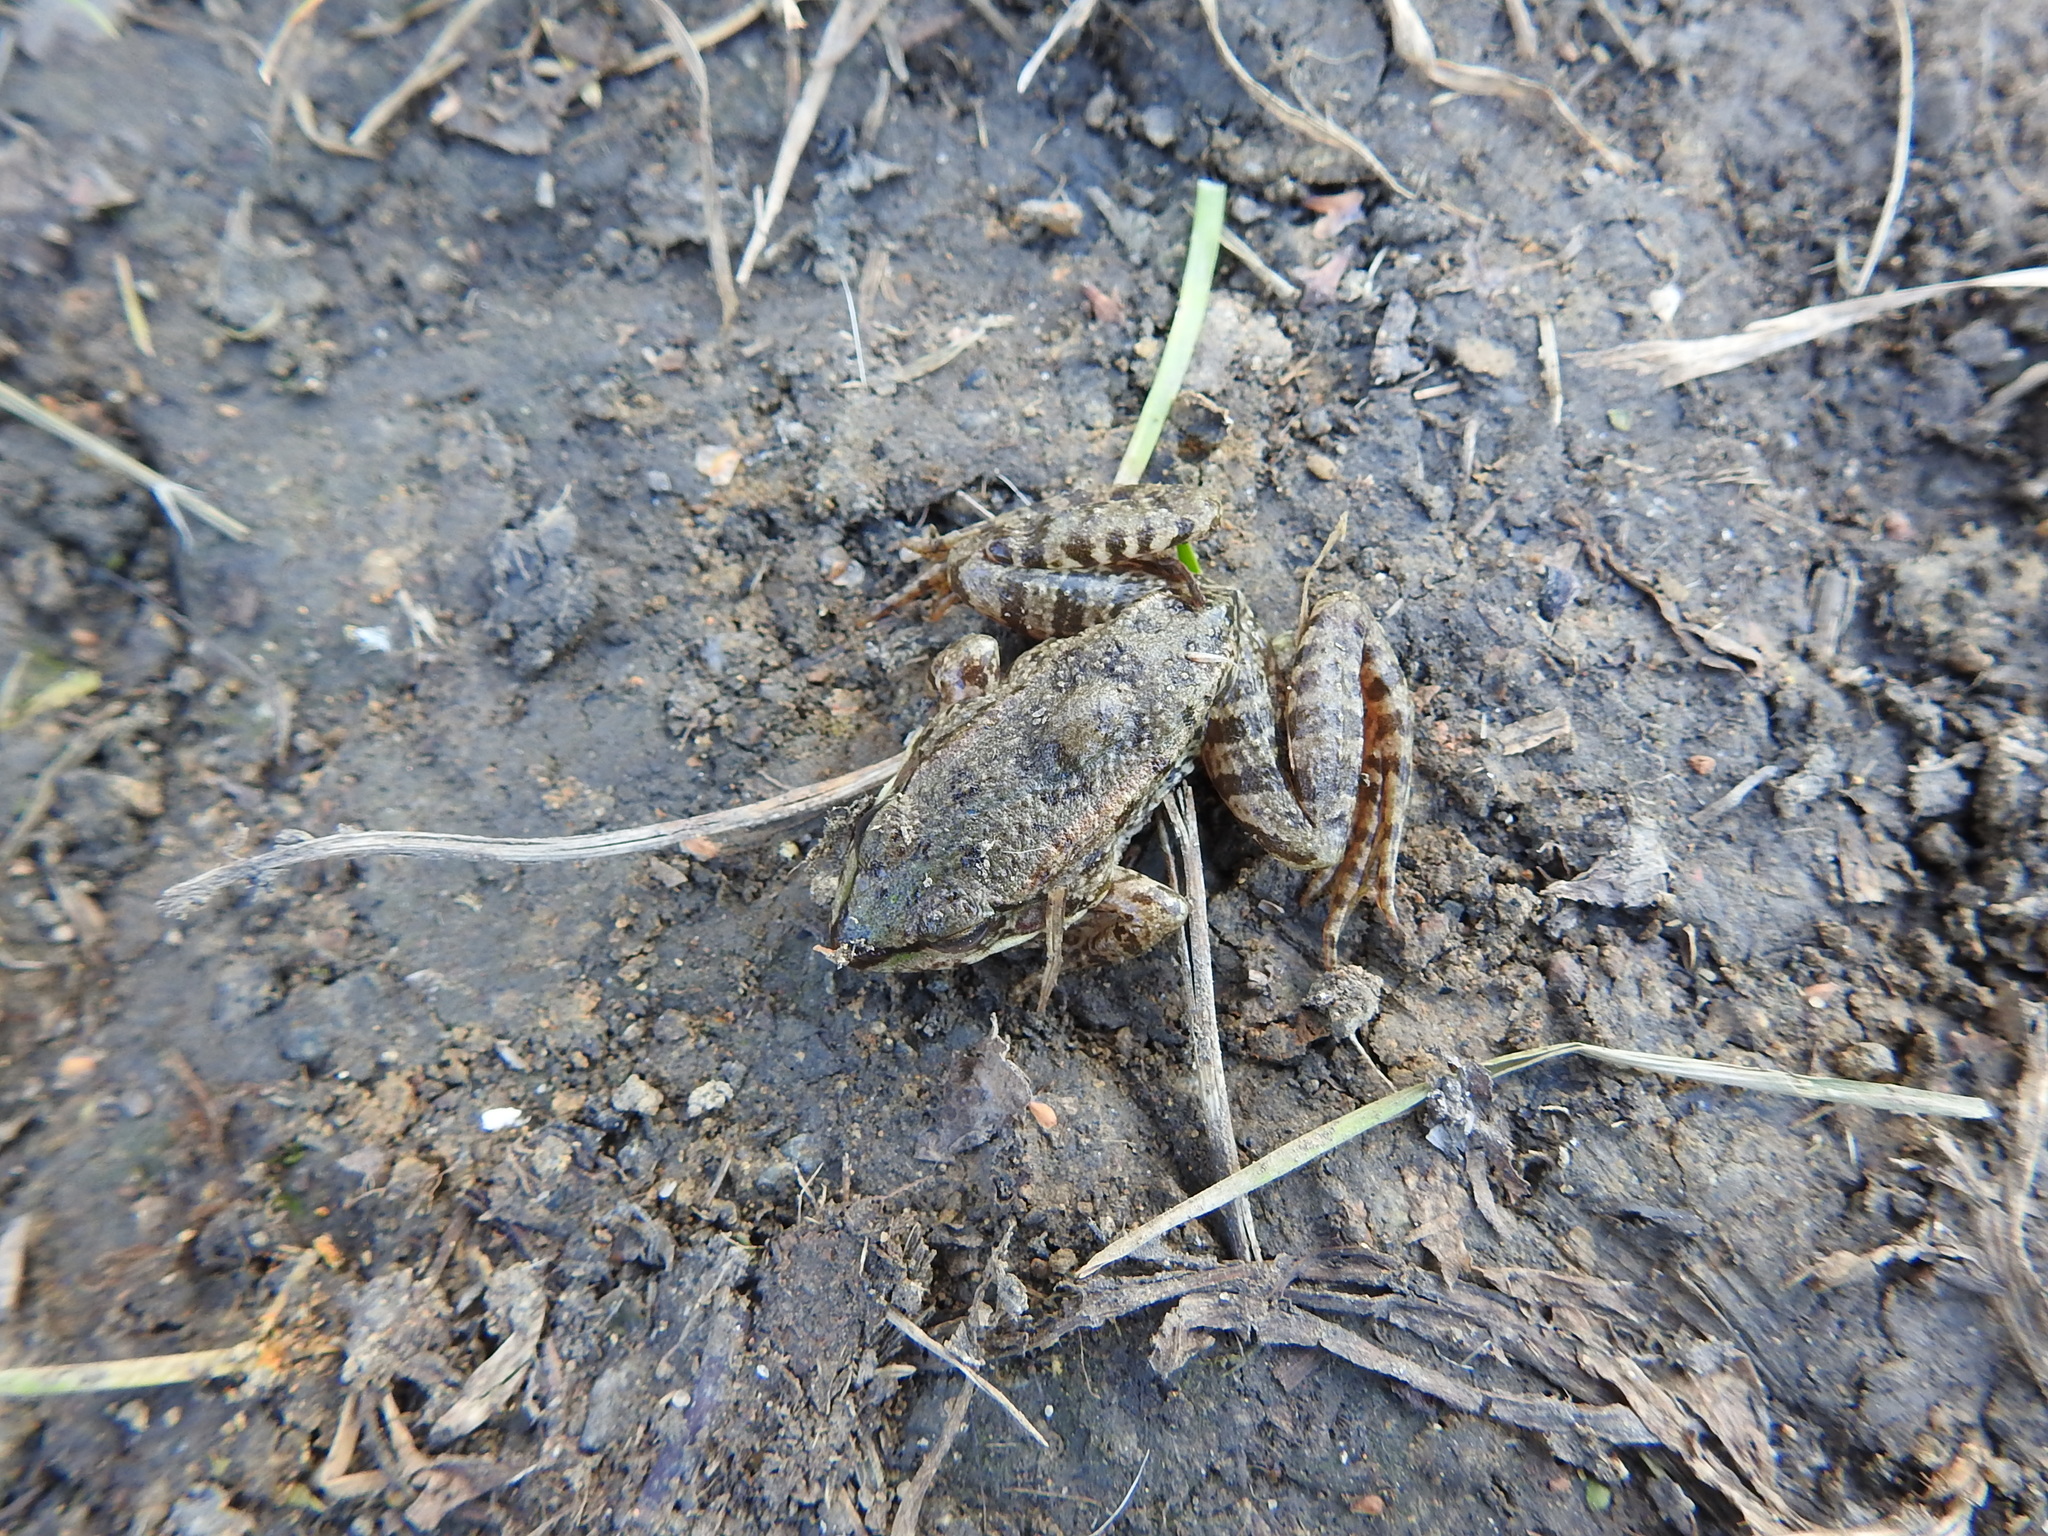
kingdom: Animalia
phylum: Chordata
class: Amphibia
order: Anura
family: Ranidae
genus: Pelophylax
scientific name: Pelophylax ridibundus
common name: Marsh frog
